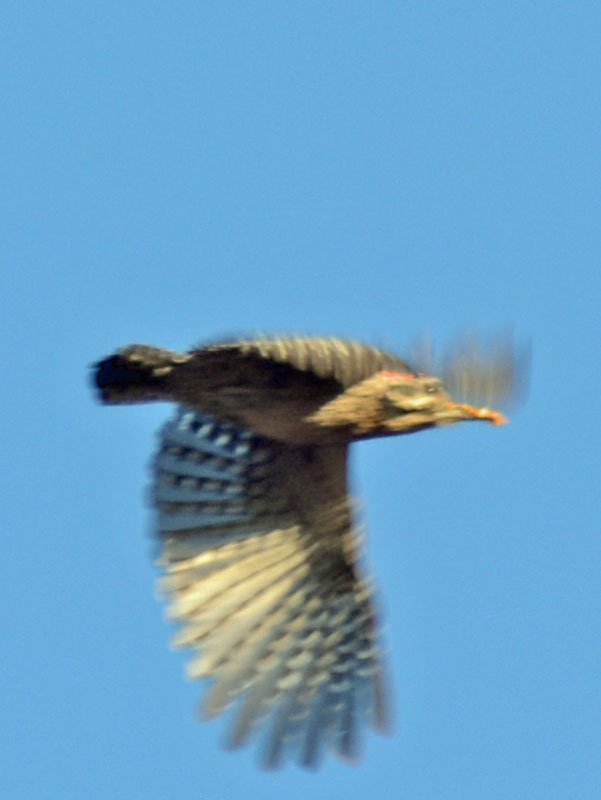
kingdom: Animalia
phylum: Chordata
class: Aves
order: Piciformes
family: Picidae
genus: Dryobates
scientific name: Dryobates scalaris
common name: Ladder-backed woodpecker
